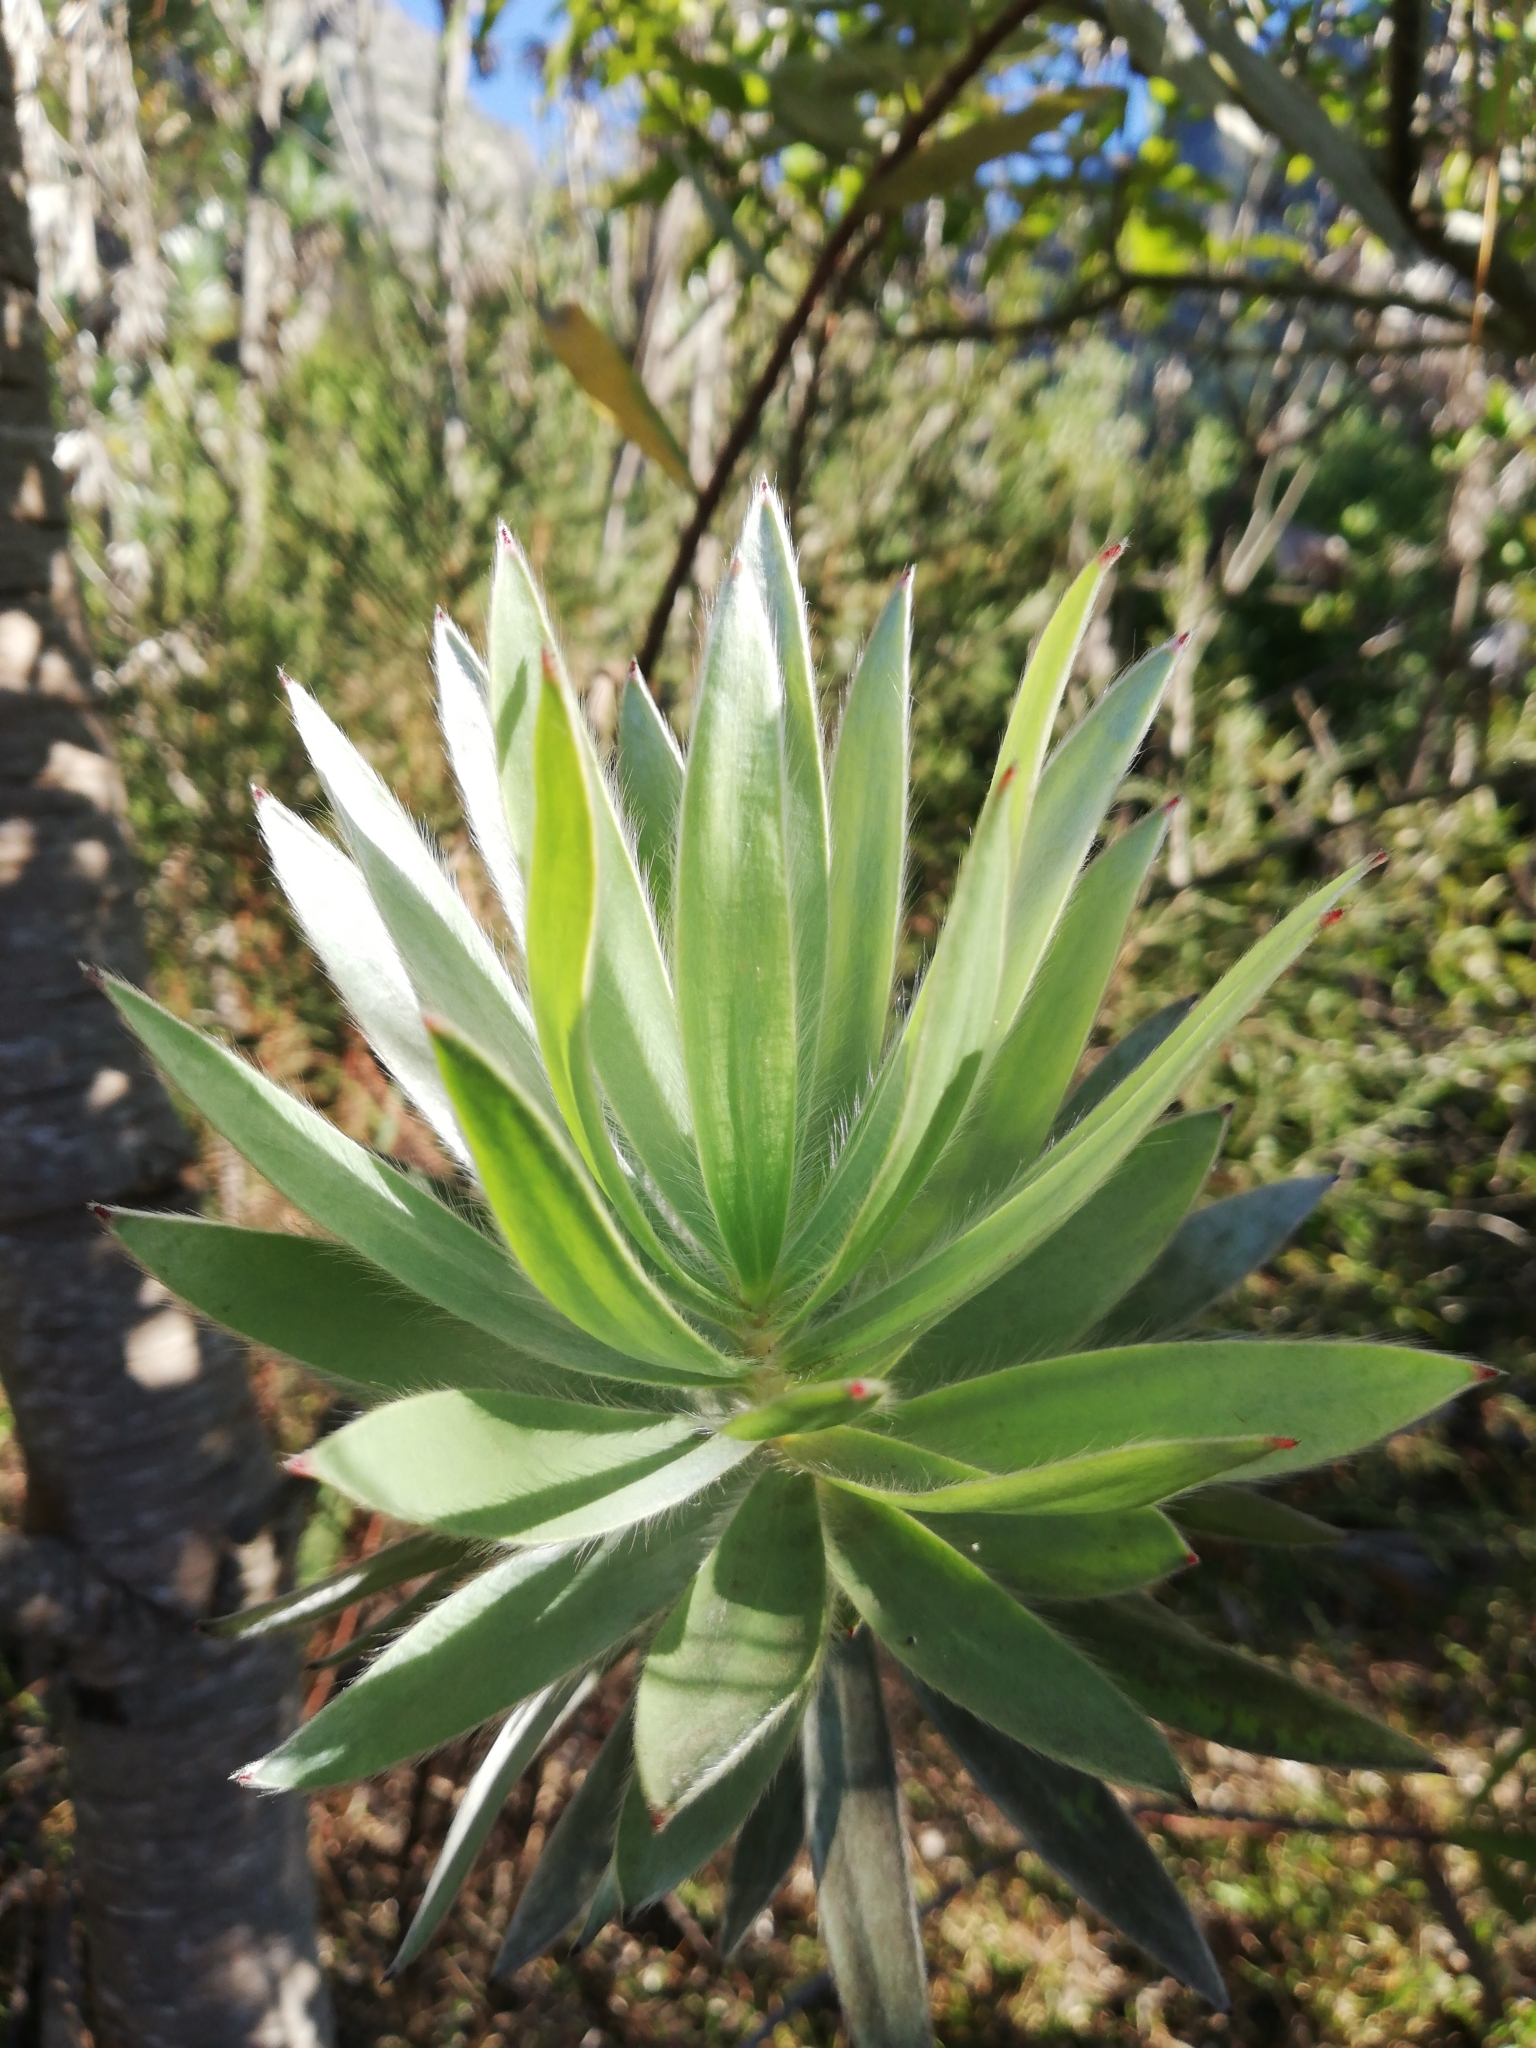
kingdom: Plantae
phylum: Tracheophyta
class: Magnoliopsida
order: Proteales
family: Proteaceae
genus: Leucadendron
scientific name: Leucadendron argenteum
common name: Cape silver tree
